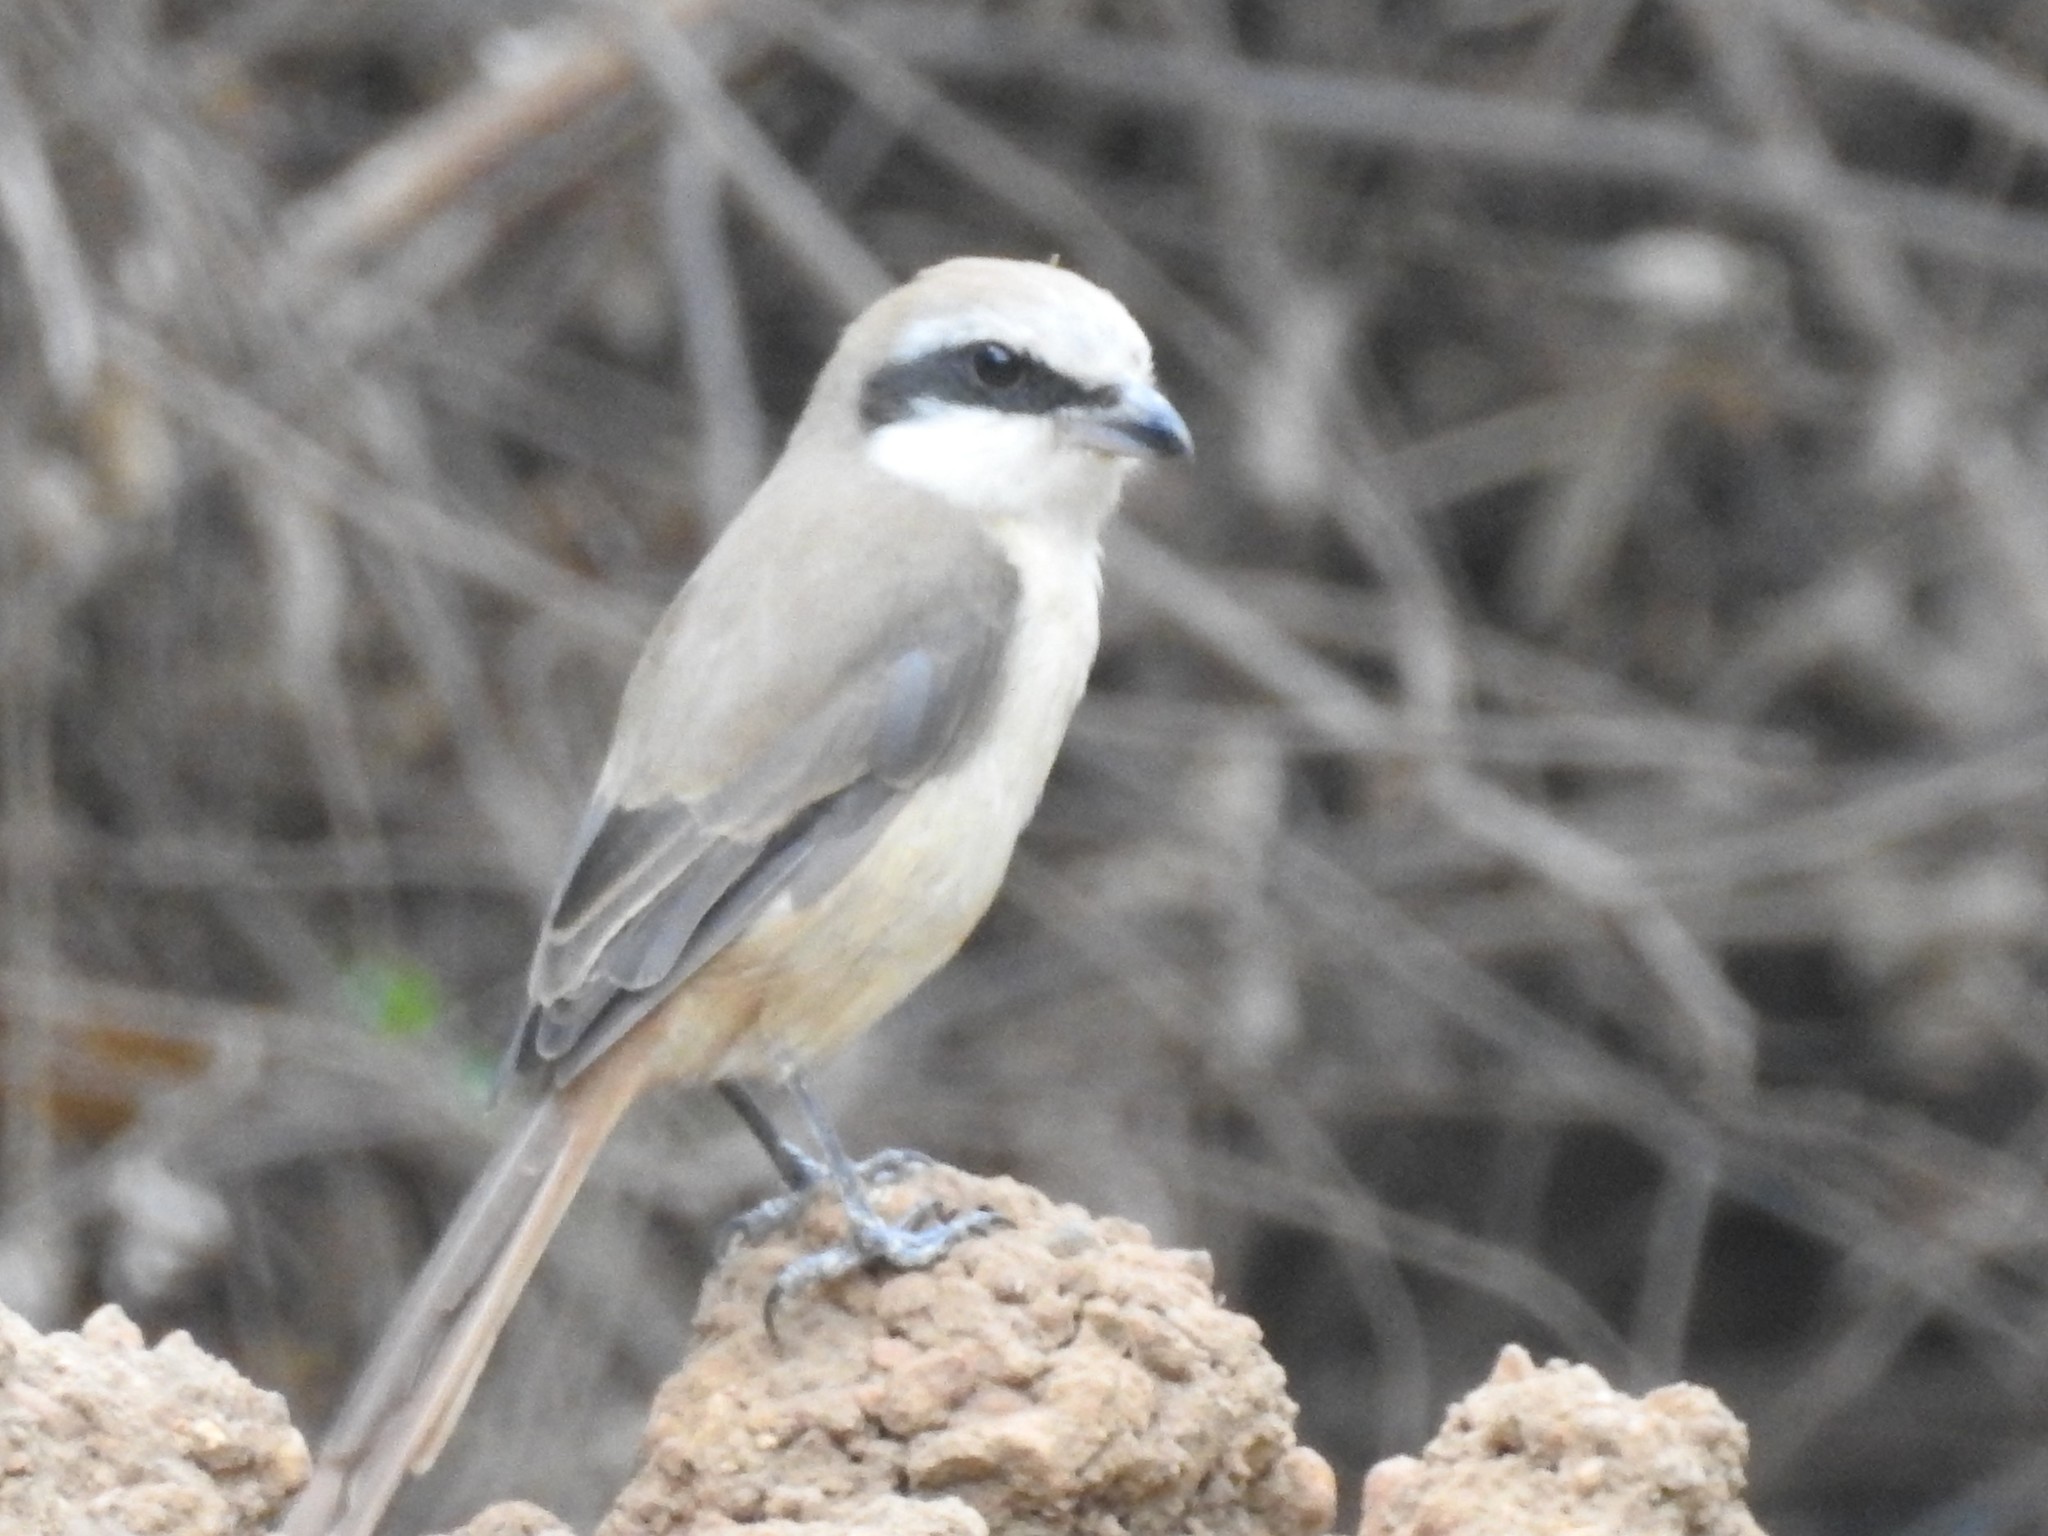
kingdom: Animalia
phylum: Chordata
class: Aves
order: Passeriformes
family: Laniidae
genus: Lanius
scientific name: Lanius schach
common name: Long-tailed shrike
